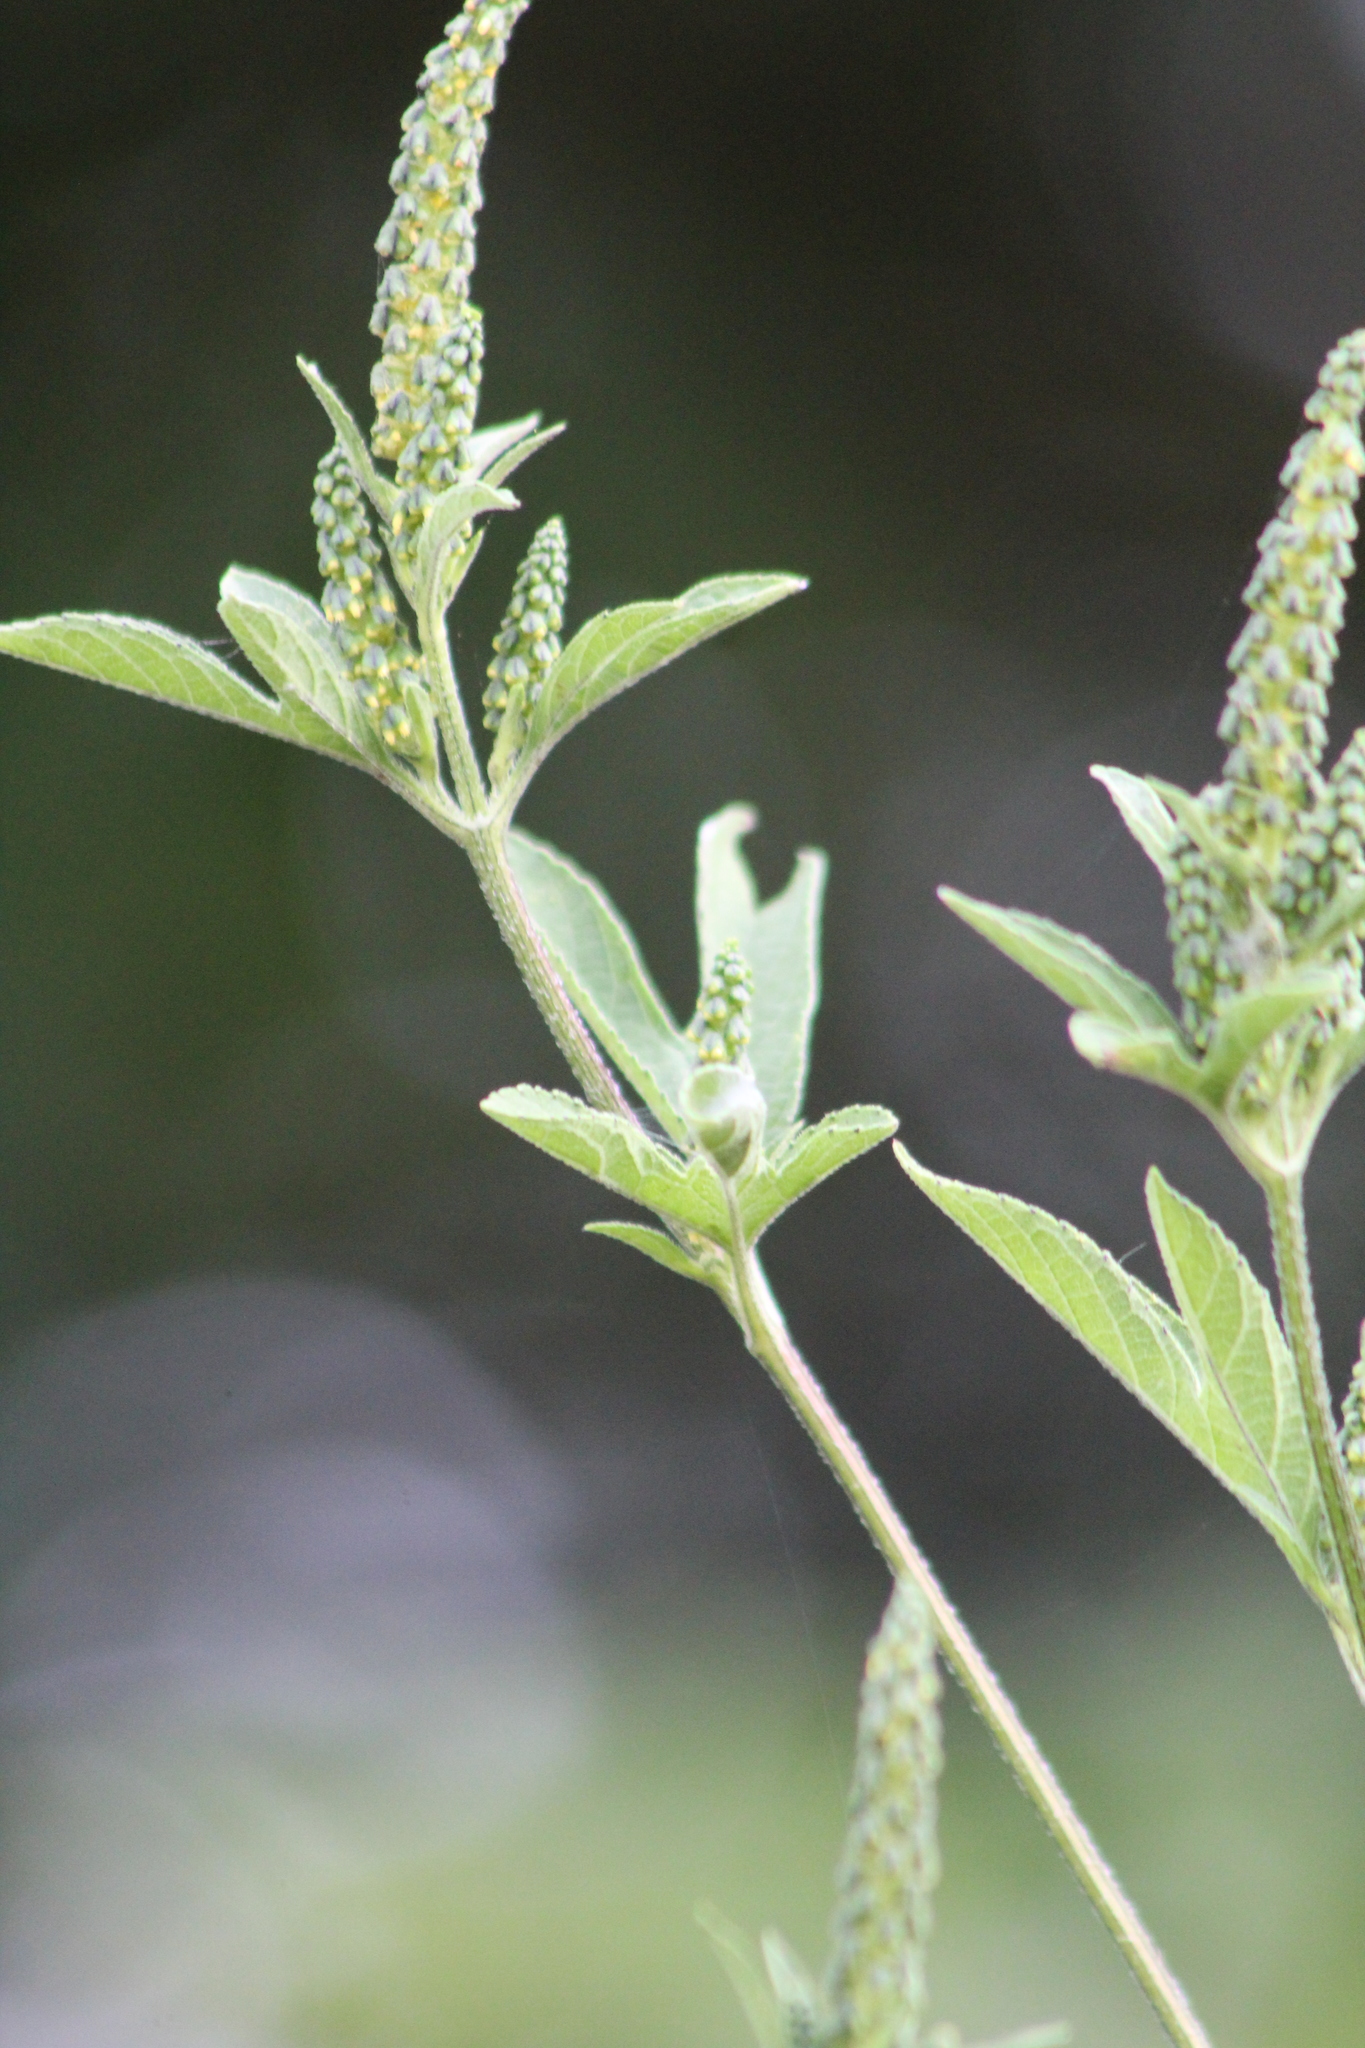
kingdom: Plantae
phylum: Tracheophyta
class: Magnoliopsida
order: Asterales
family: Asteraceae
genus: Ambrosia
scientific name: Ambrosia trifida
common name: Giant ragweed
